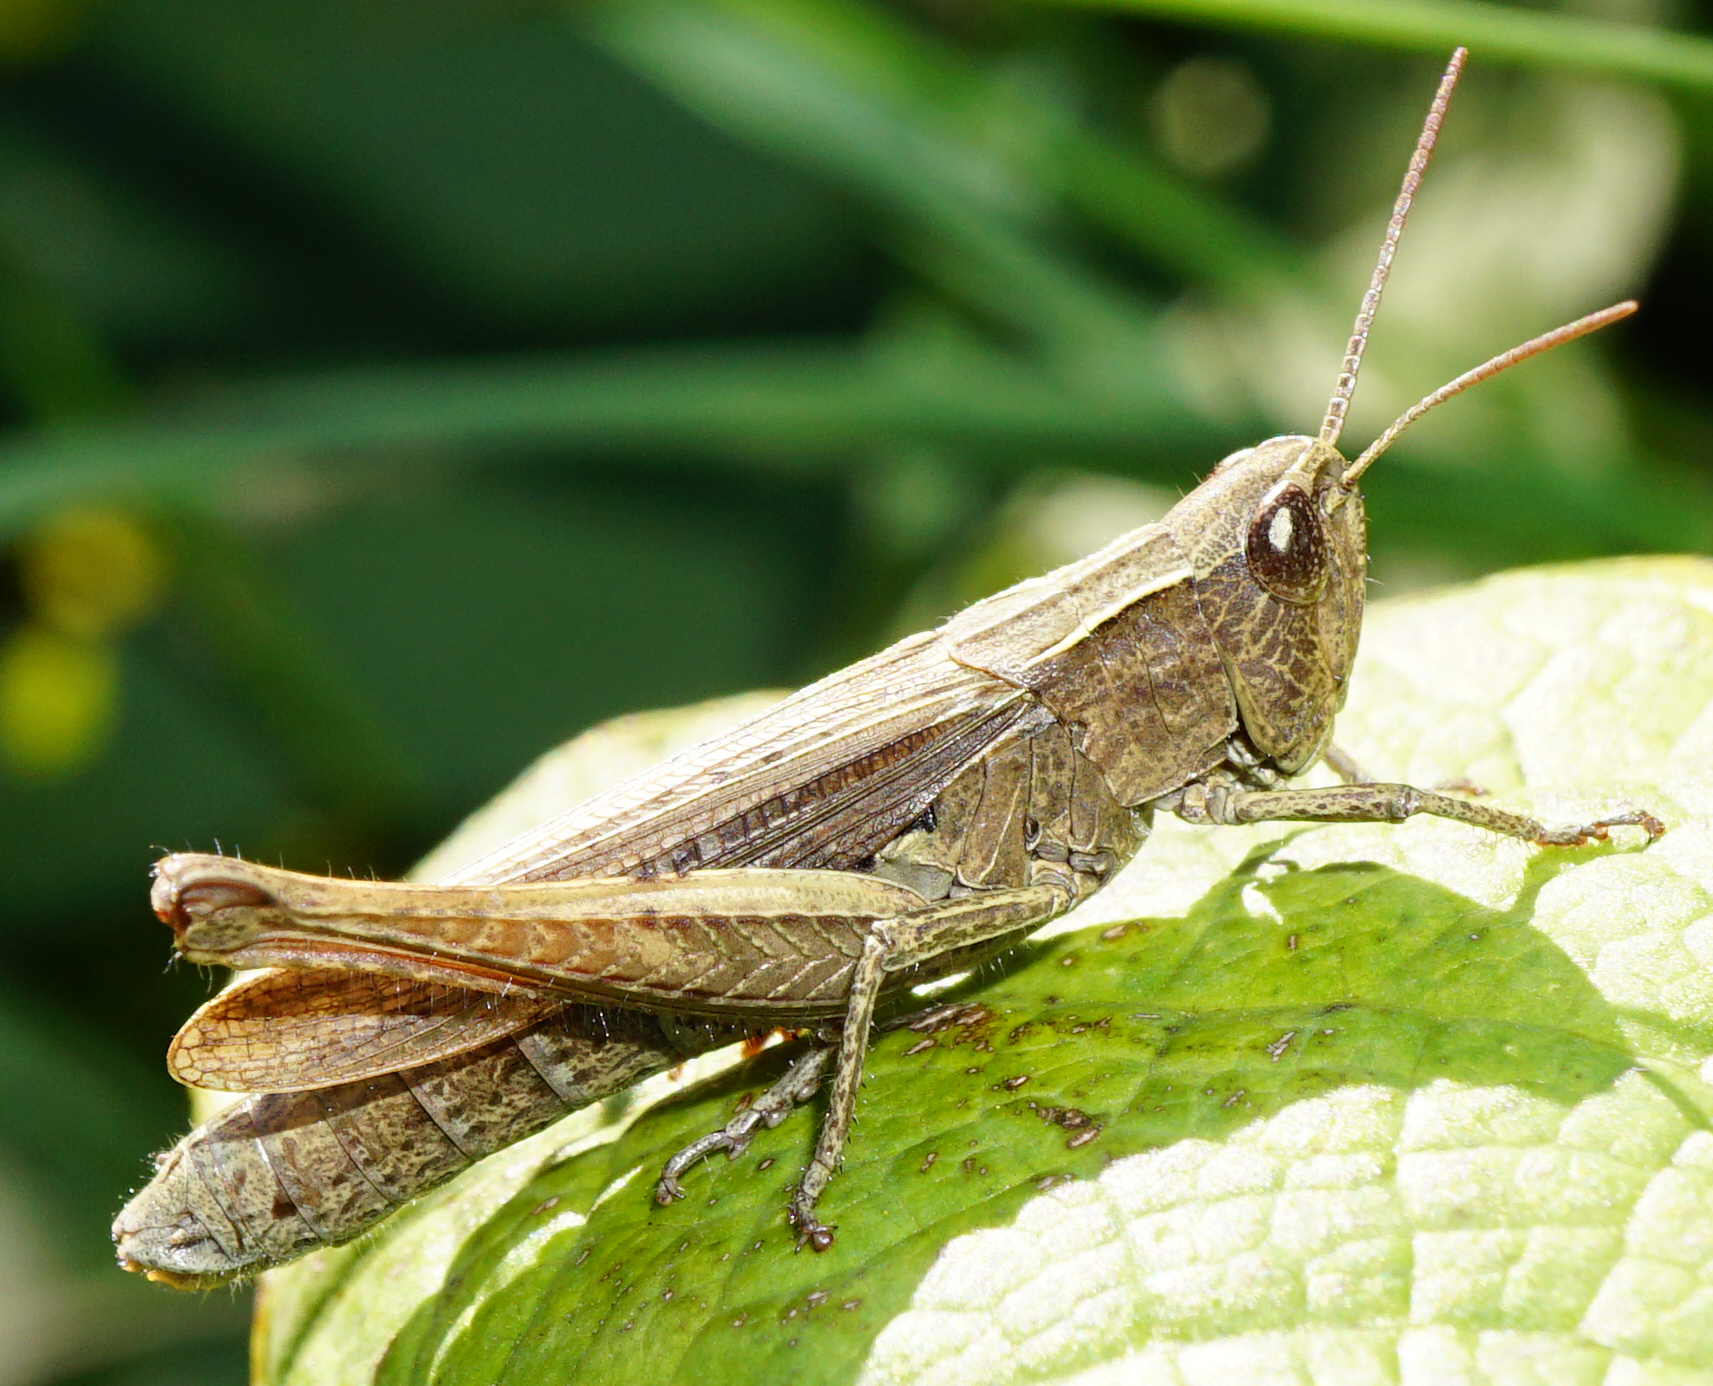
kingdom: Animalia
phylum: Arthropoda
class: Insecta
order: Orthoptera
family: Acrididae
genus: Chorthippus
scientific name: Chorthippus dichrous
